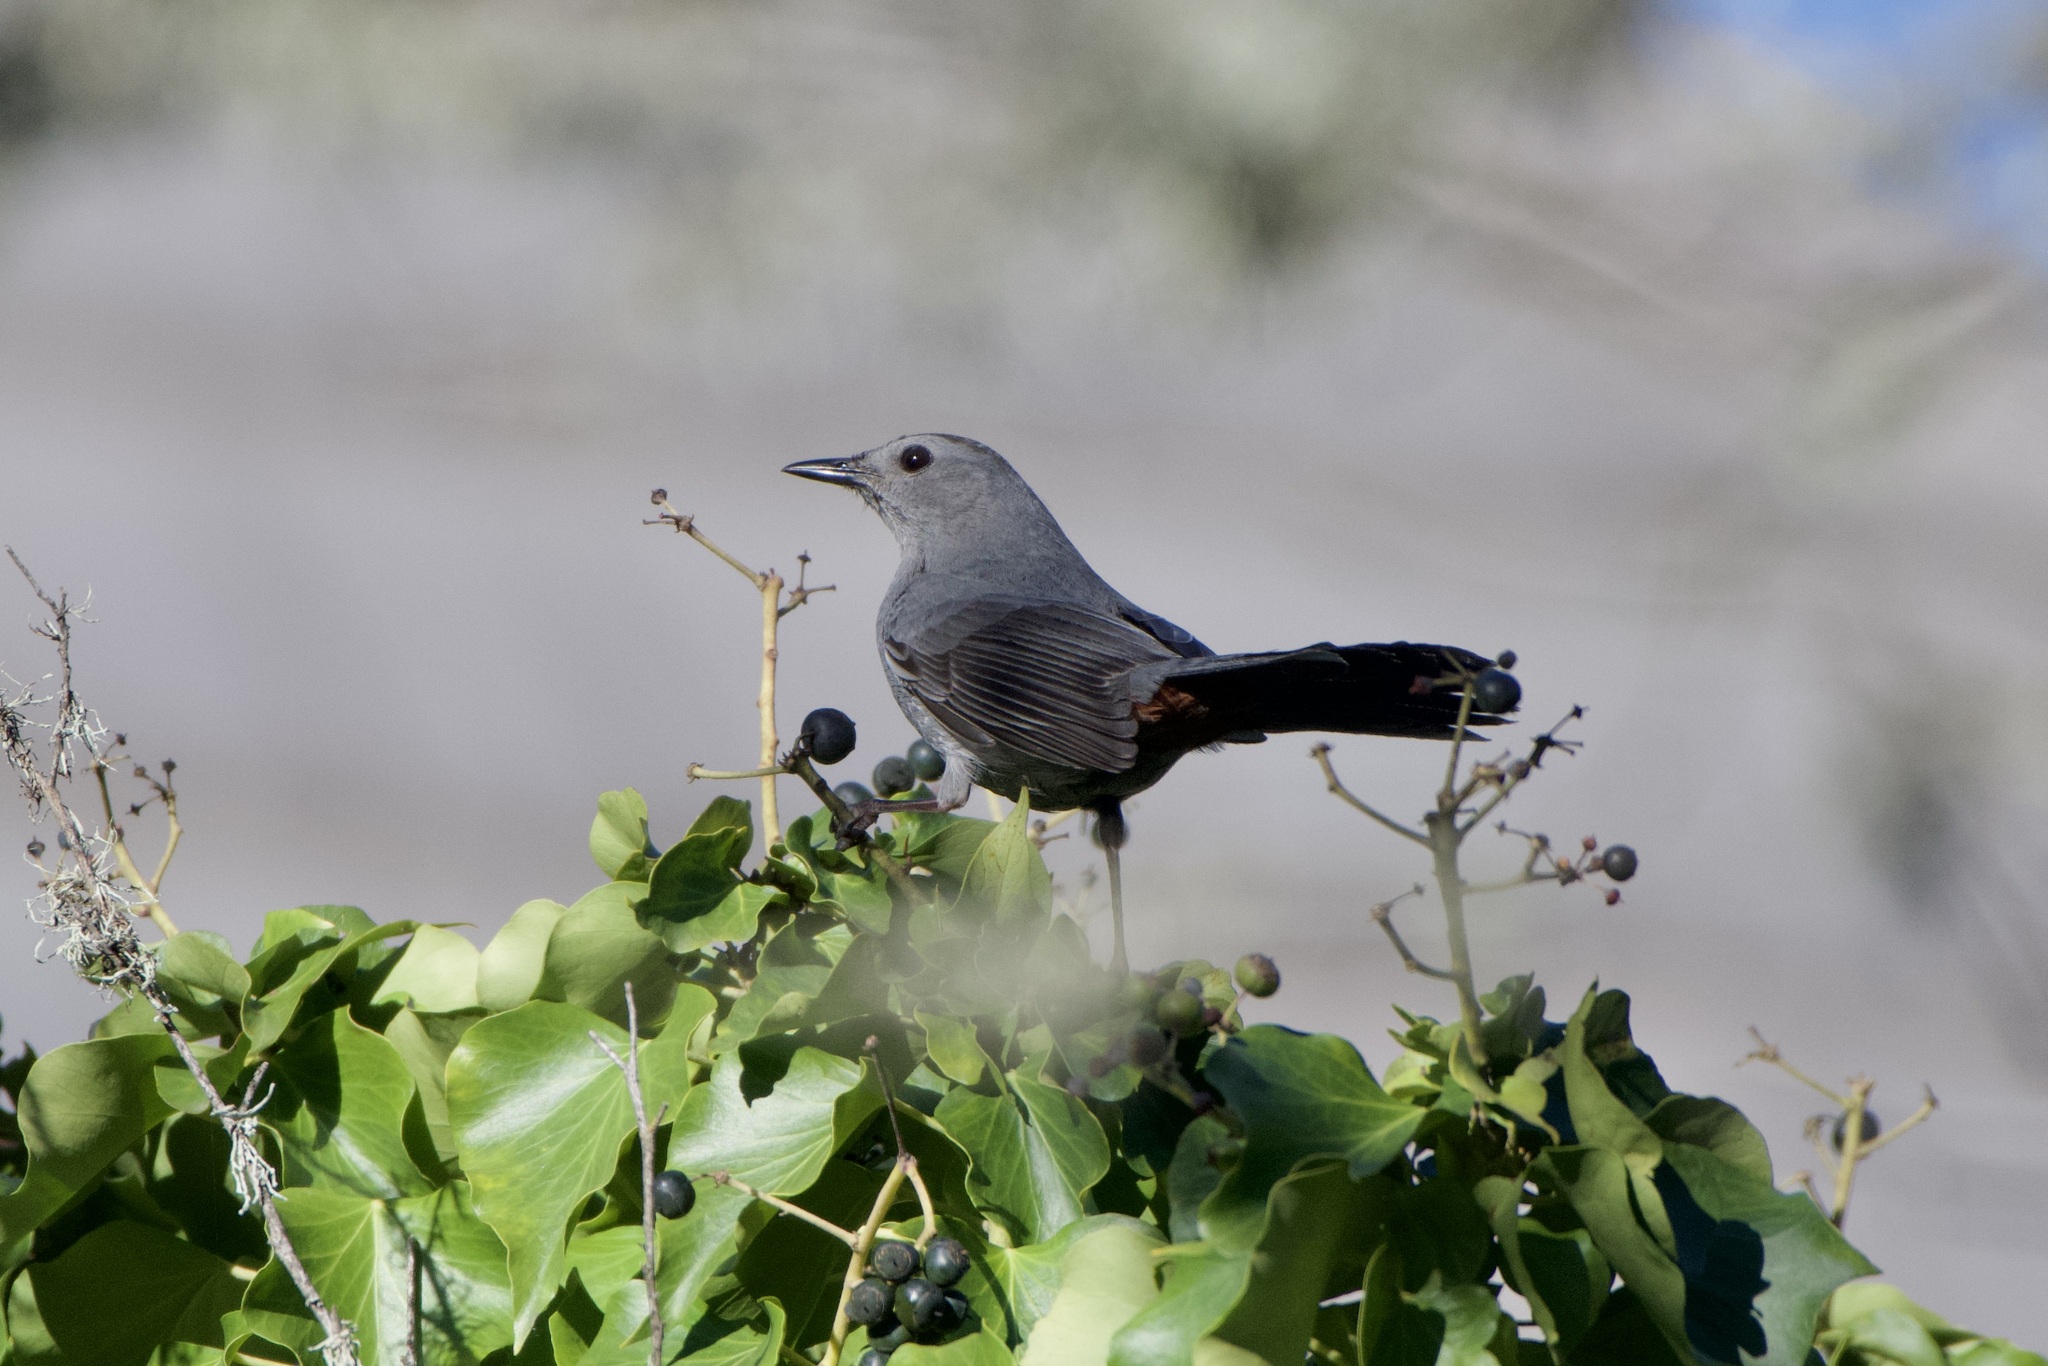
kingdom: Animalia
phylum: Chordata
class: Aves
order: Passeriformes
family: Mimidae
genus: Dumetella
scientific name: Dumetella carolinensis
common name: Gray catbird
